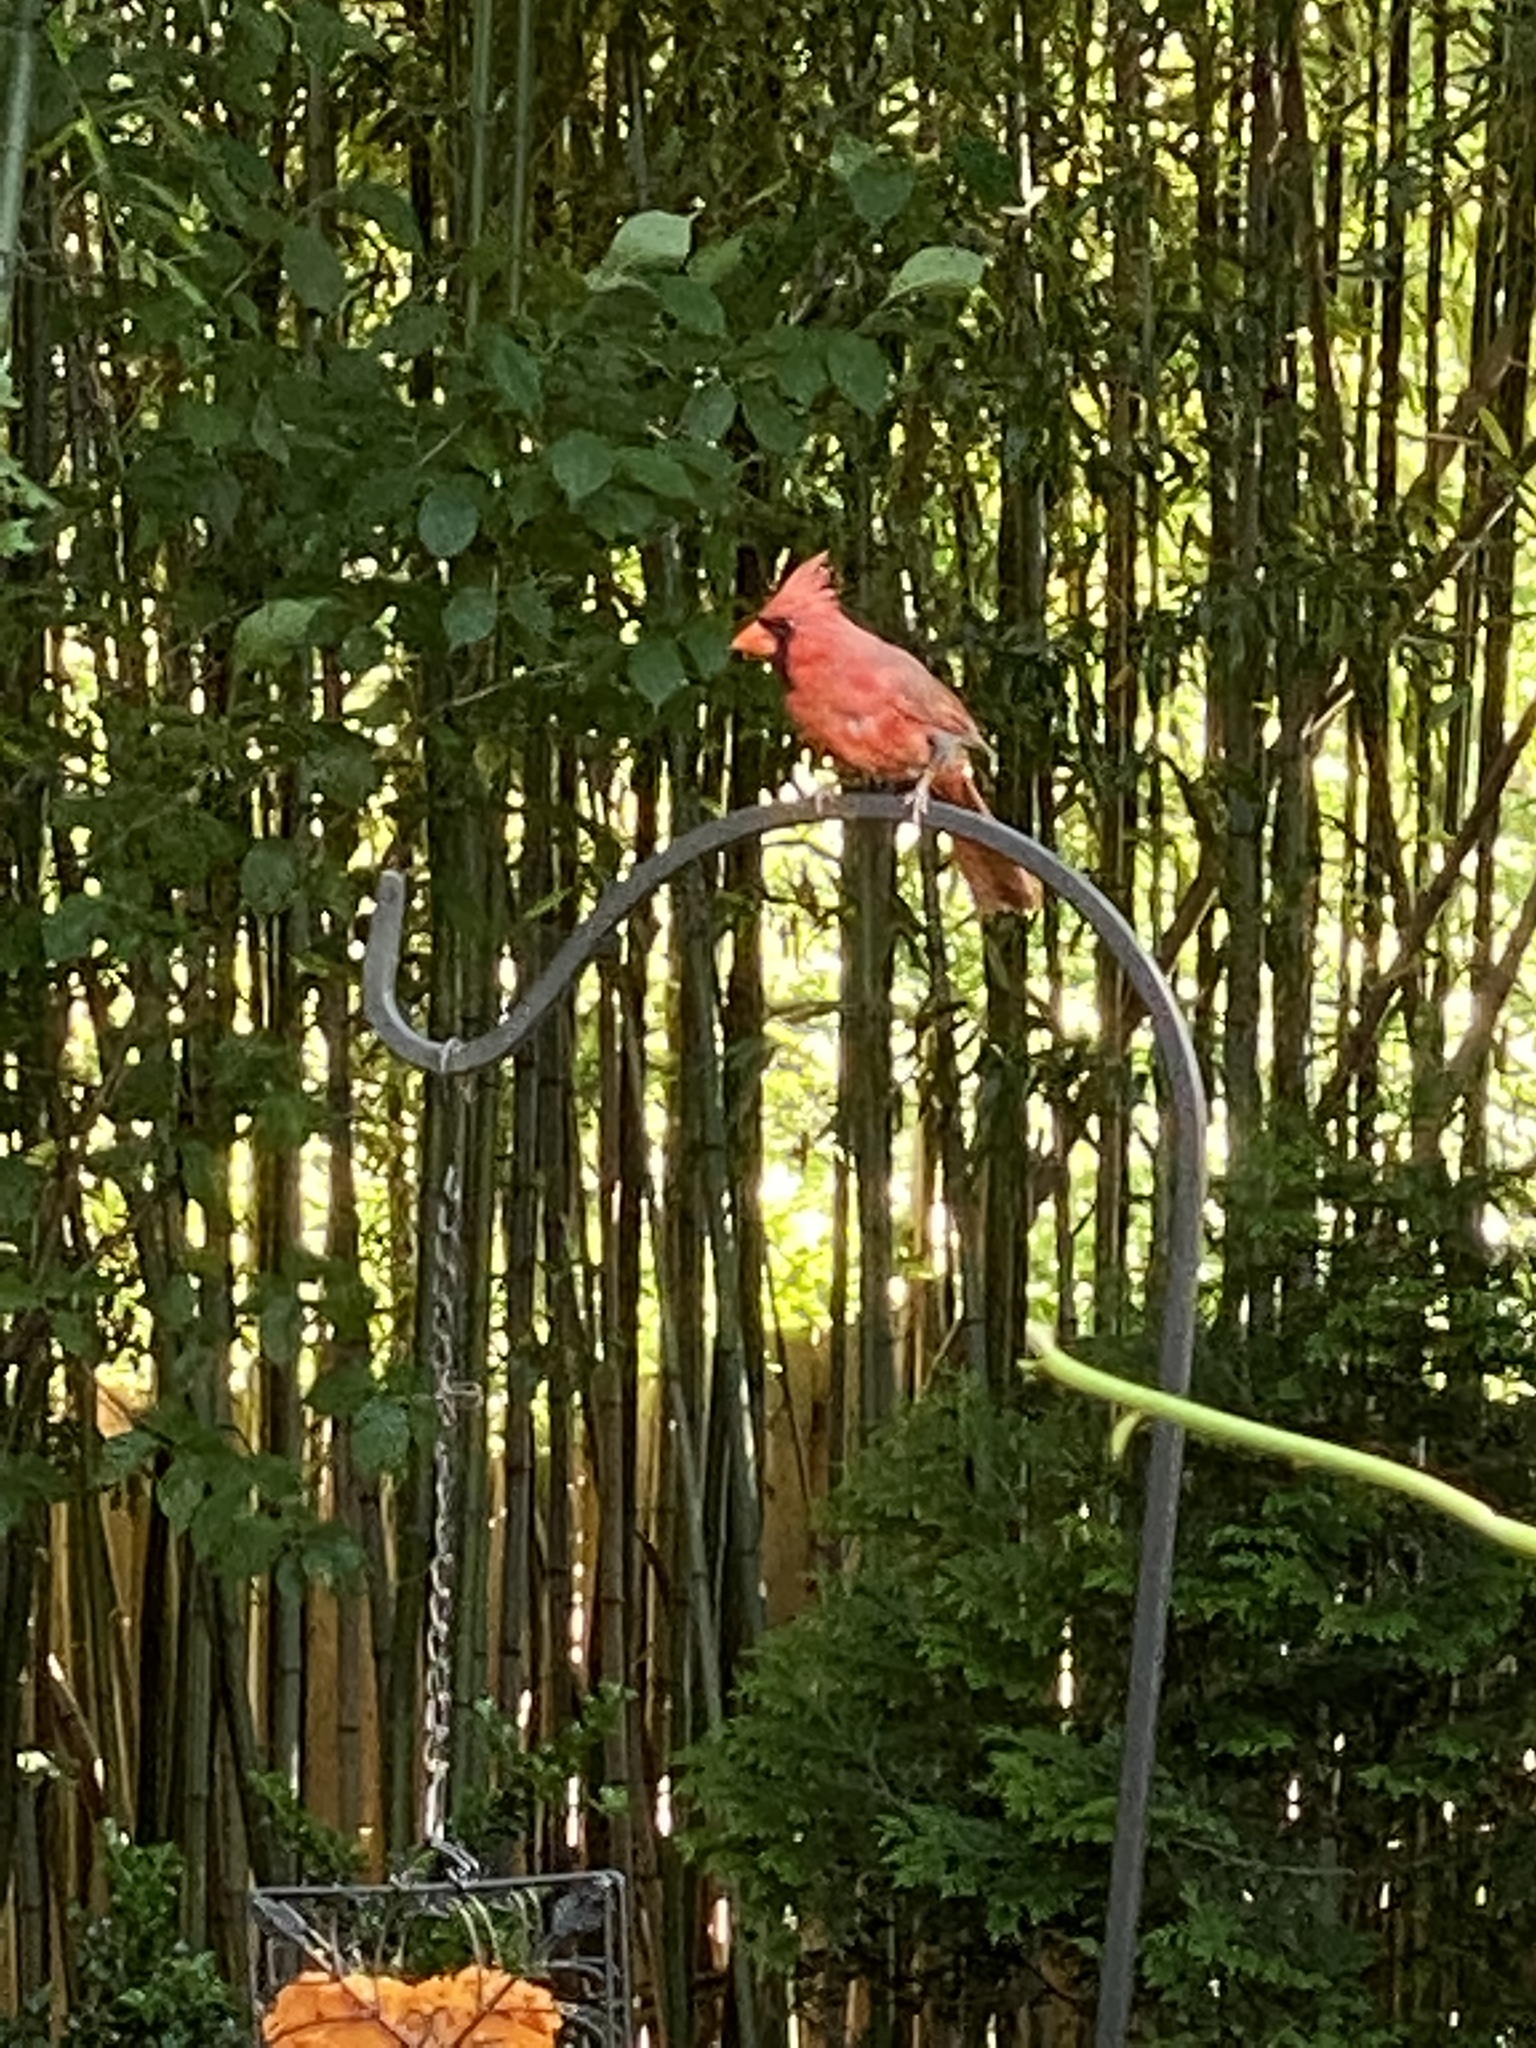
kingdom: Animalia
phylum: Chordata
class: Aves
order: Passeriformes
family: Cardinalidae
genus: Cardinalis
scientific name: Cardinalis cardinalis
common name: Northern cardinal
